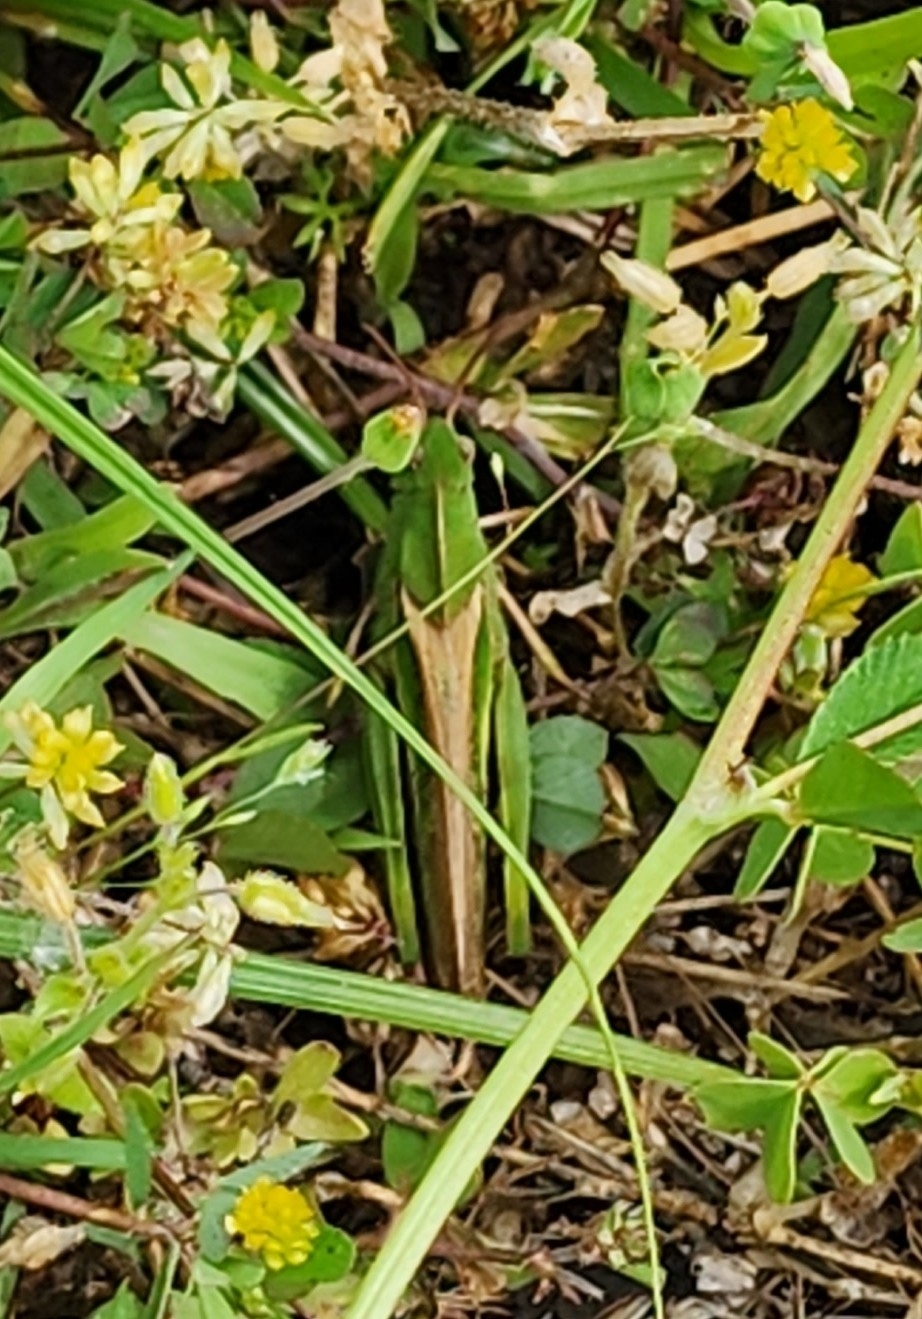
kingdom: Animalia
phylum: Arthropoda
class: Insecta
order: Orthoptera
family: Acrididae
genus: Chortophaga
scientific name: Chortophaga viridifasciata
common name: Green-striped grasshopper
